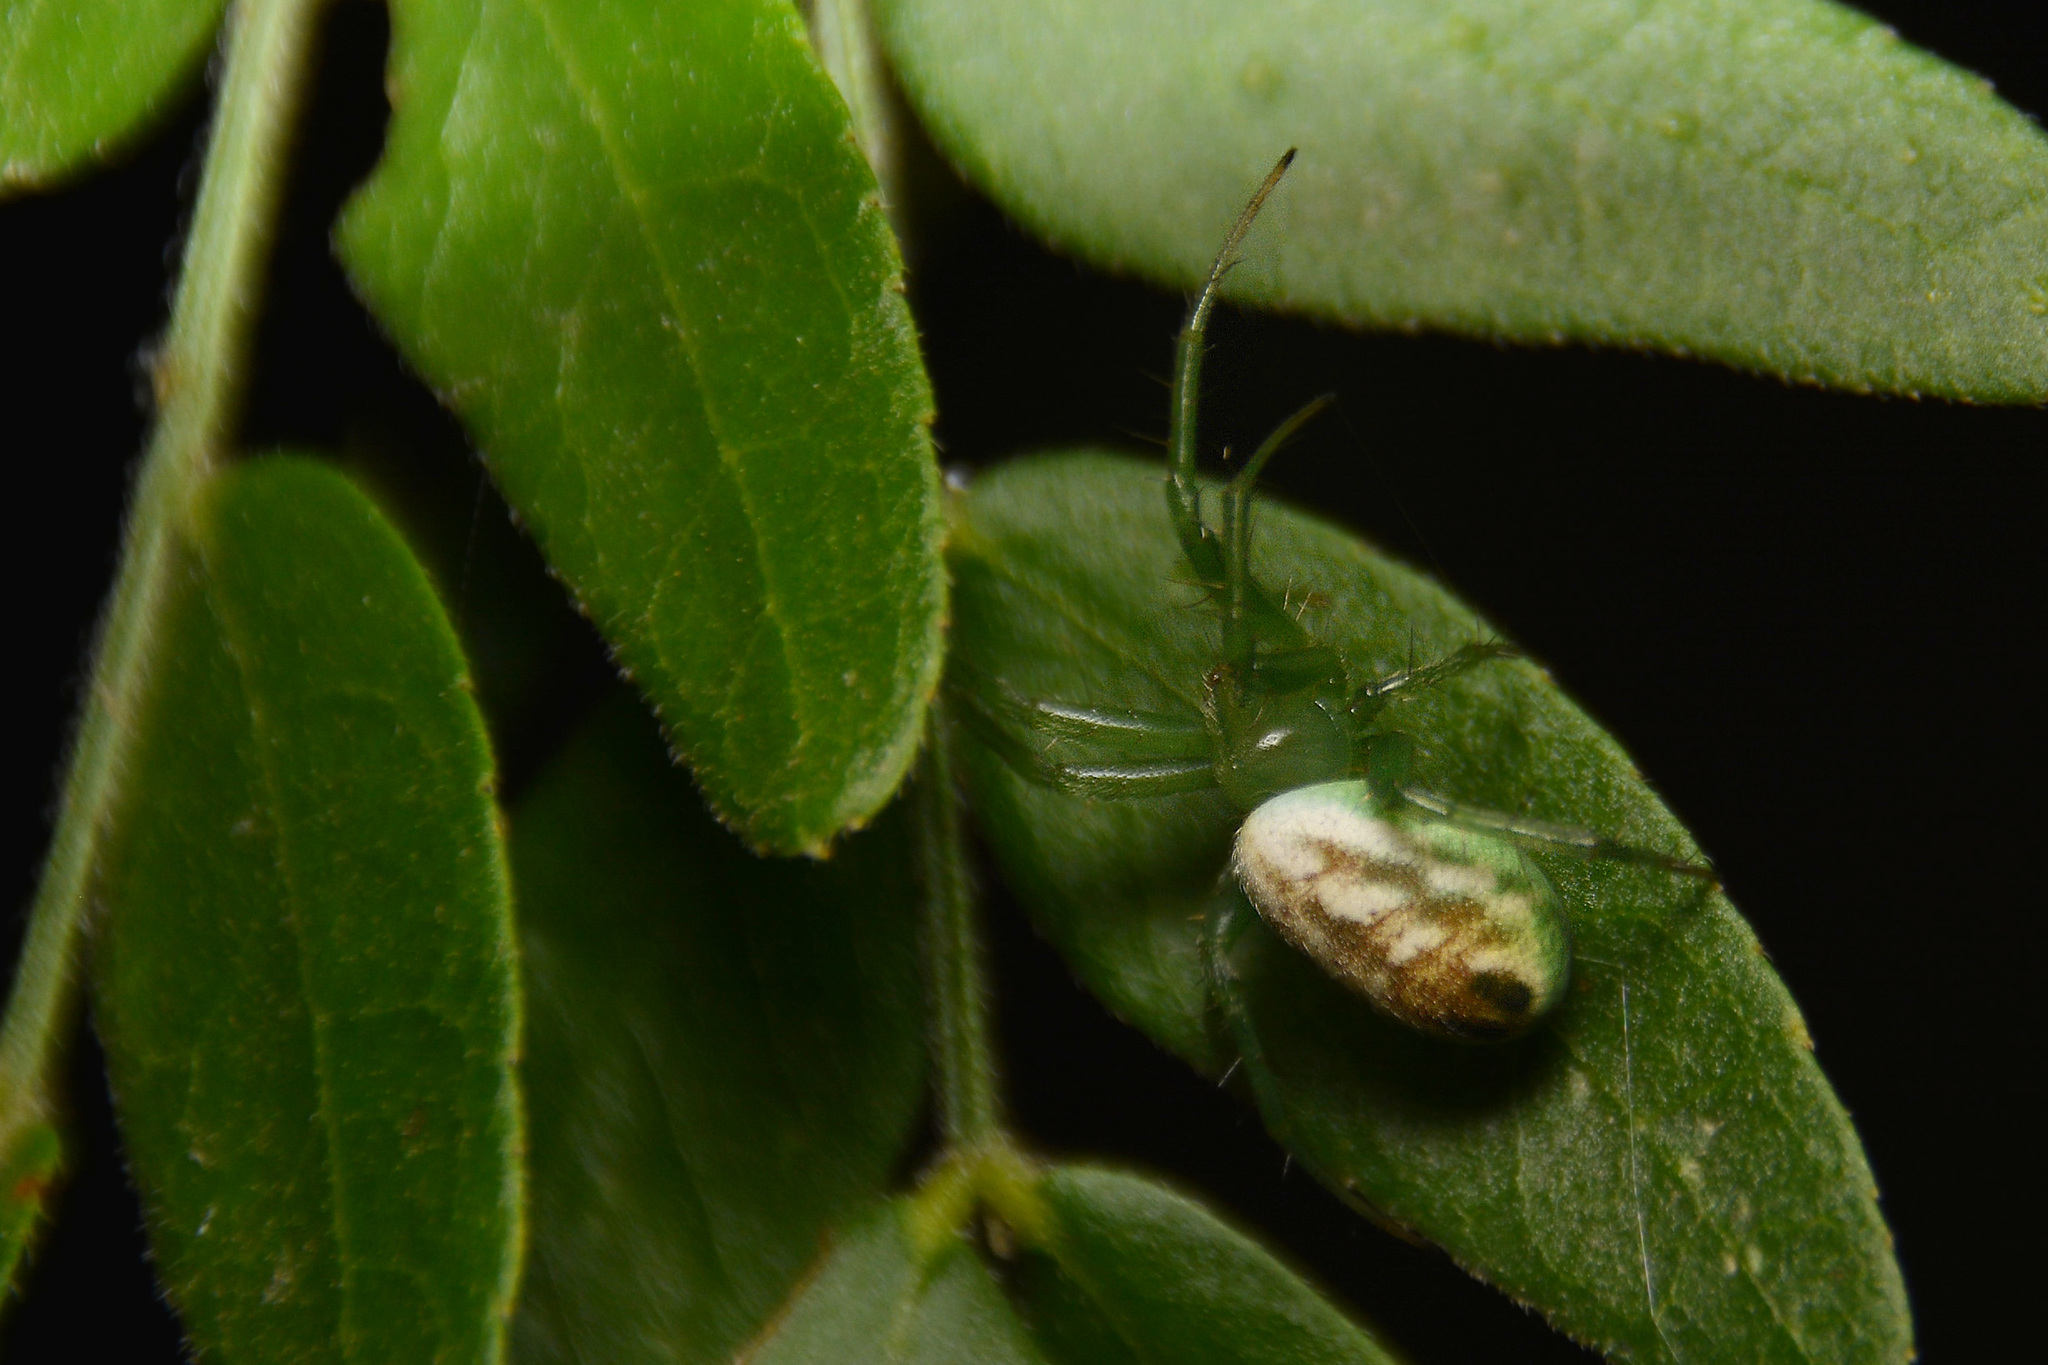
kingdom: Animalia
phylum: Arthropoda
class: Arachnida
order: Araneae
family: Araneidae
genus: Mangora
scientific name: Mangora lactea
